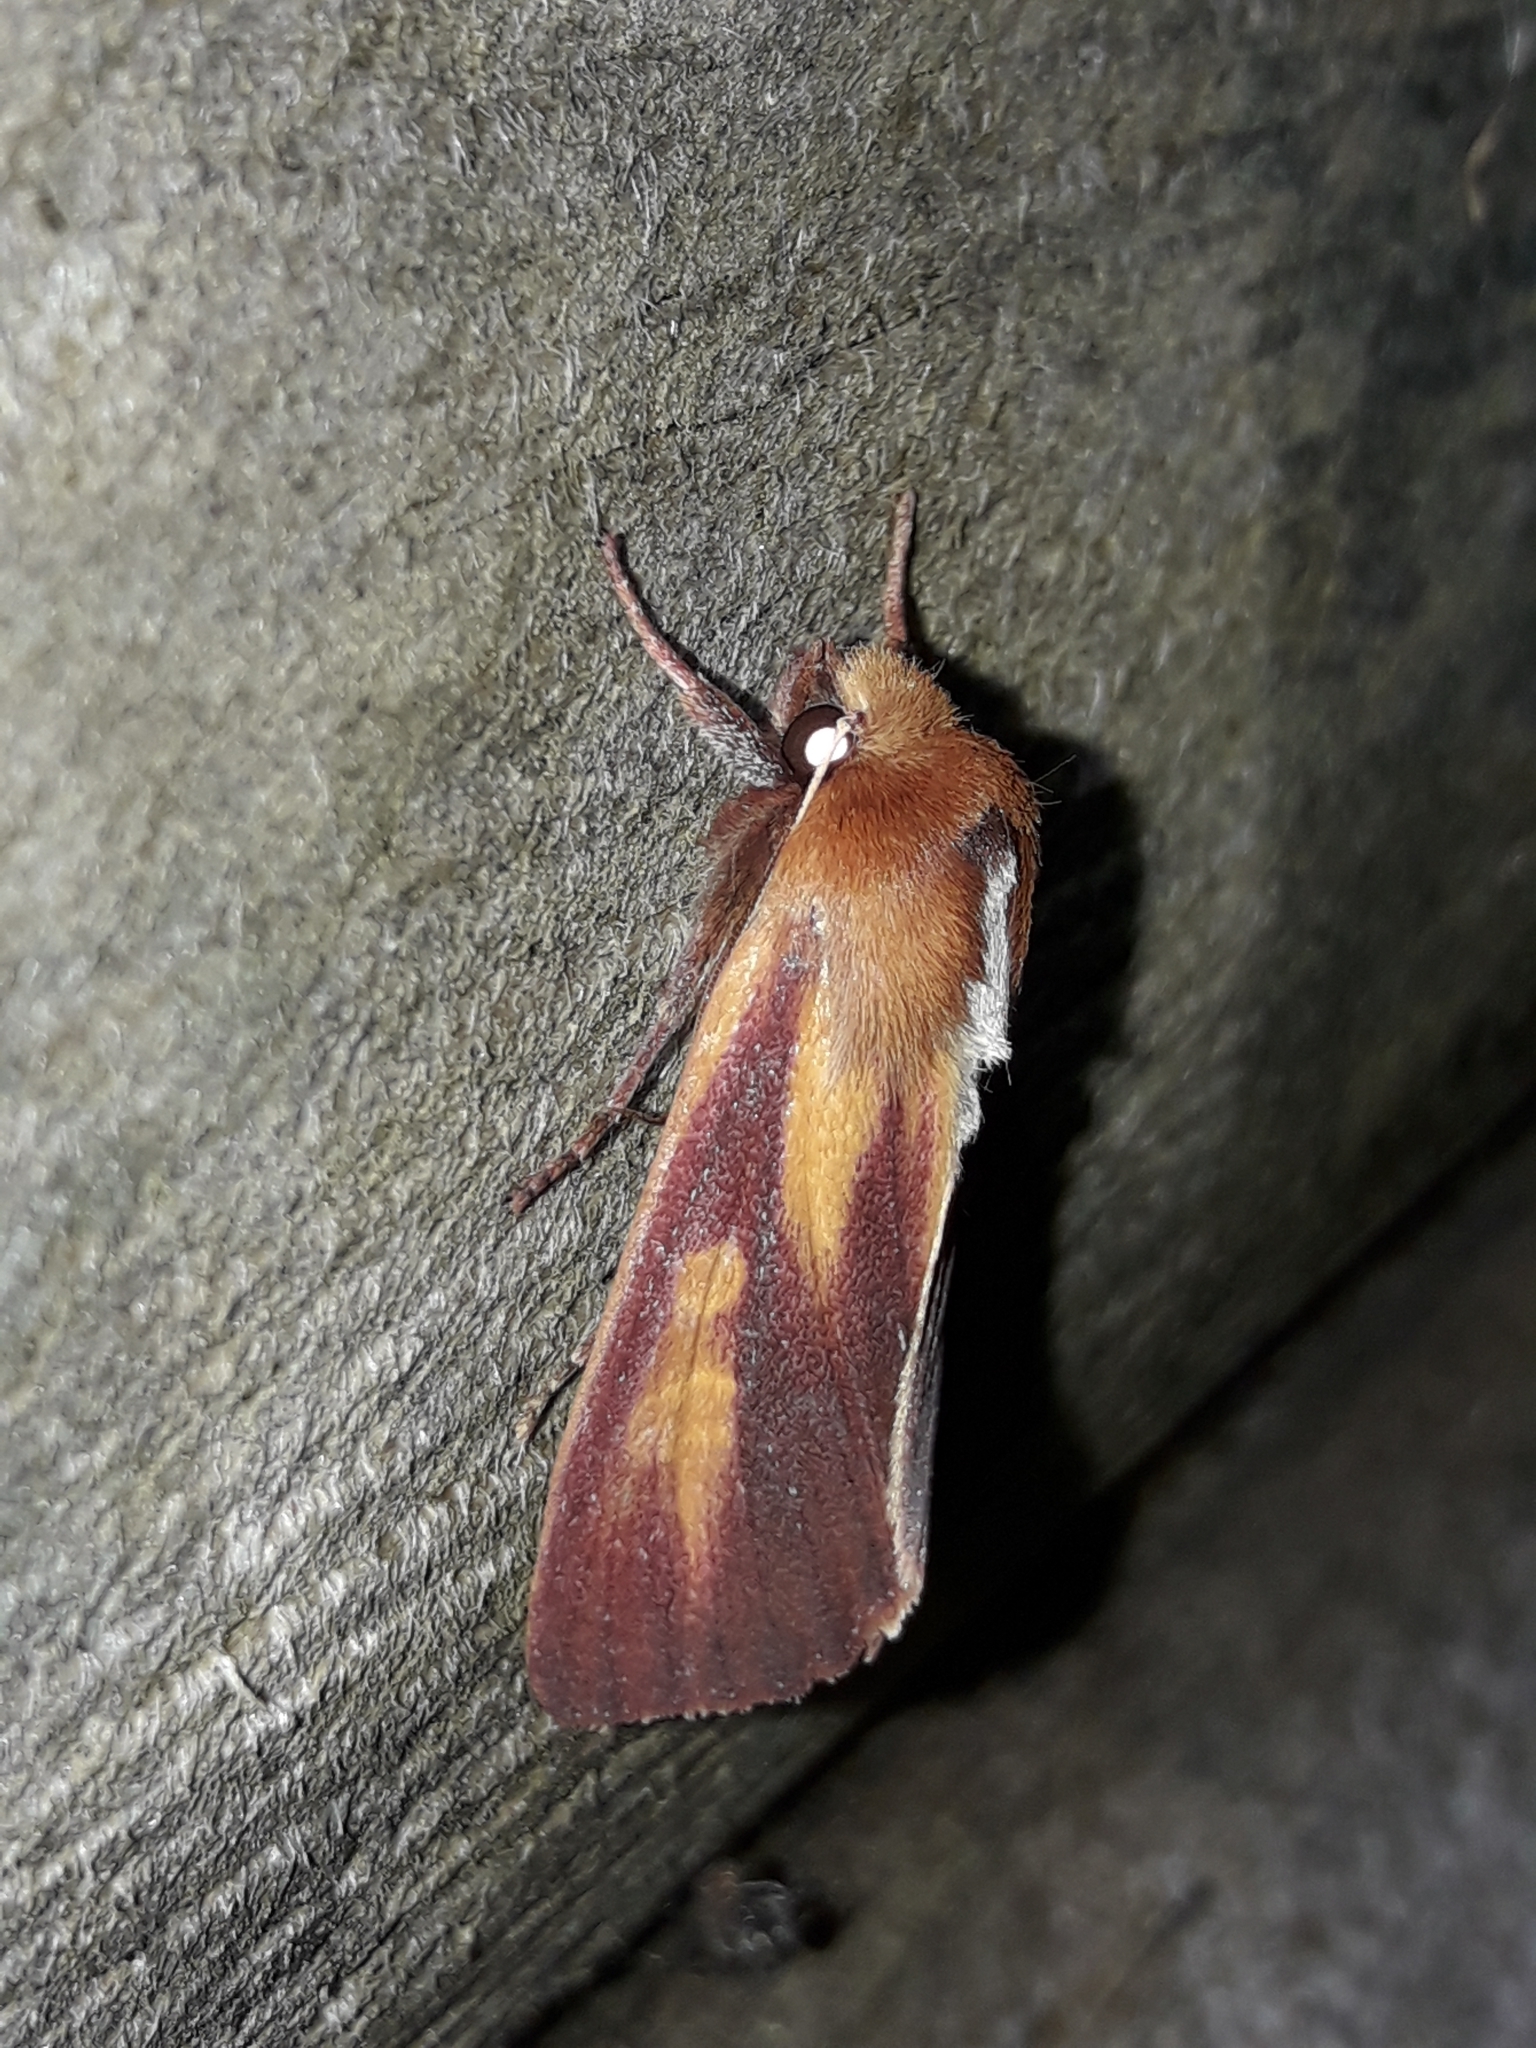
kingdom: Animalia
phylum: Arthropoda
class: Insecta
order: Lepidoptera
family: Noctuidae
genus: Ichneutica
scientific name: Ichneutica
